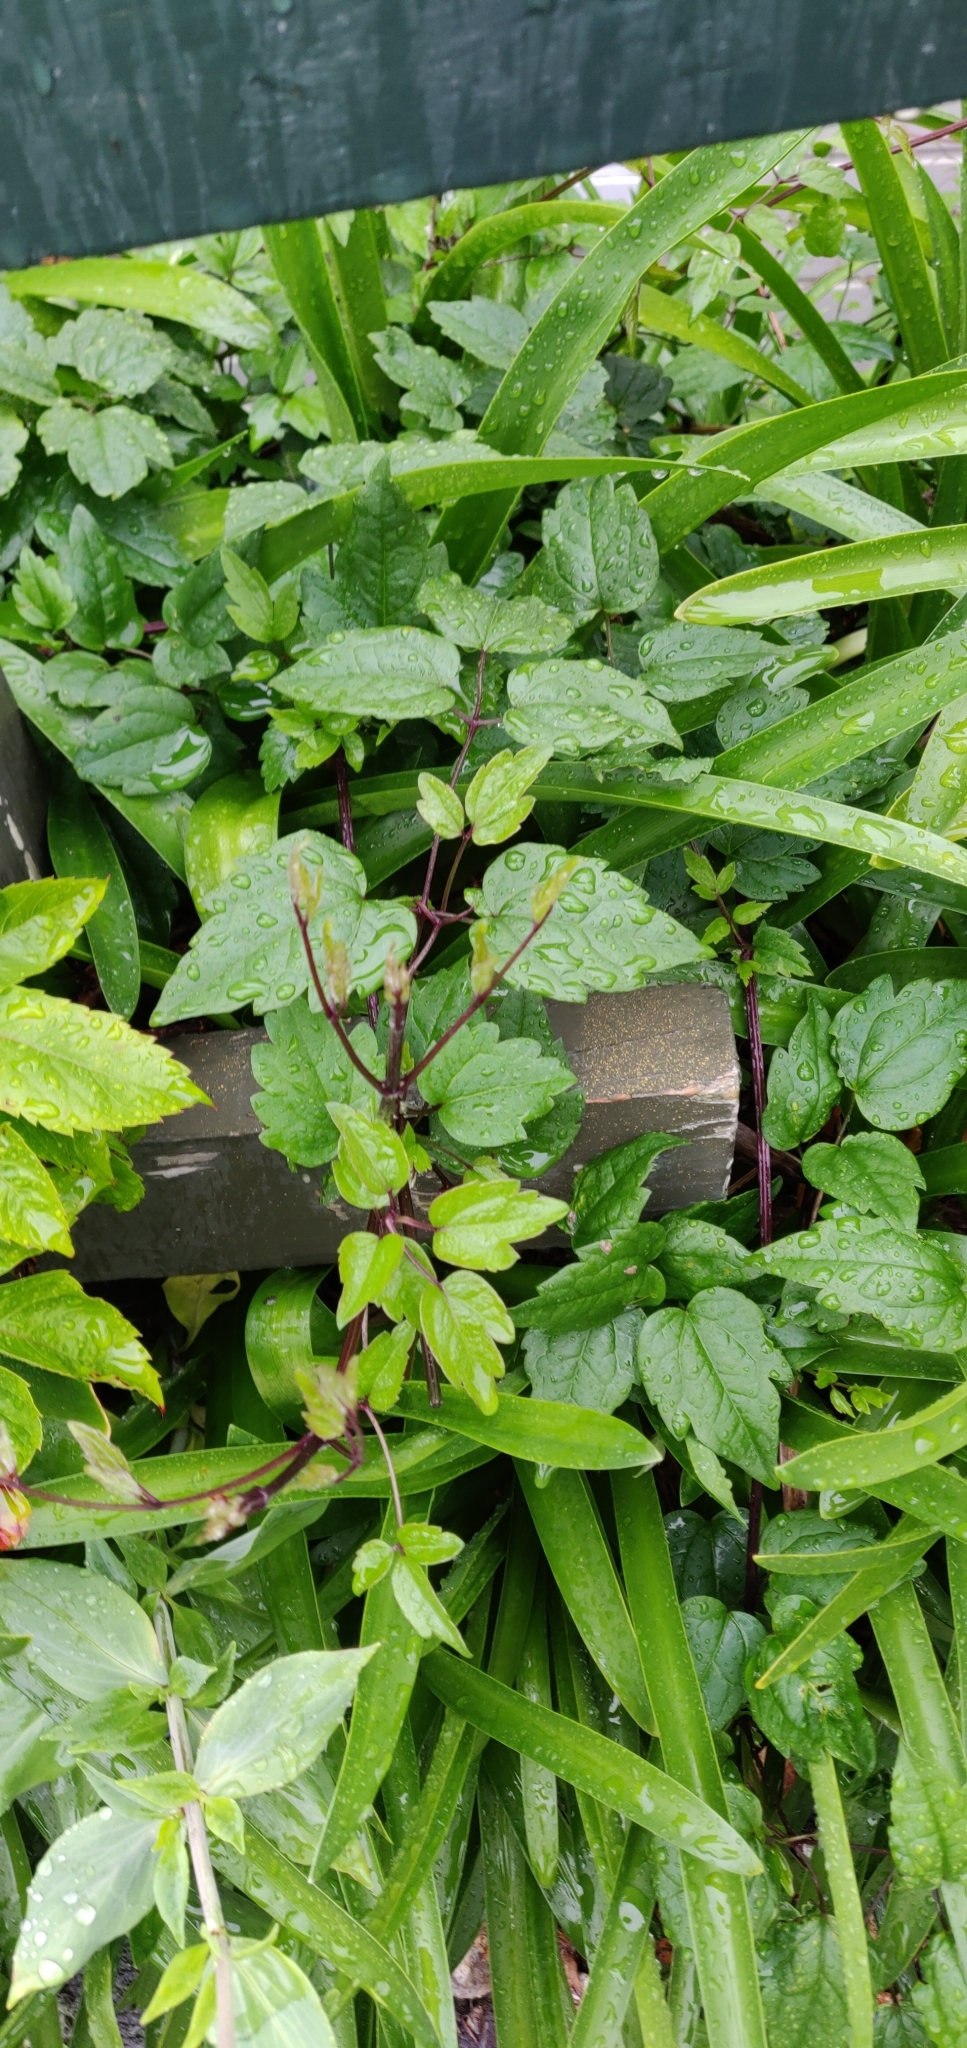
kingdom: Plantae
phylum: Tracheophyta
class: Magnoliopsida
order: Ranunculales
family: Ranunculaceae
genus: Clematis
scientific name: Clematis vitalba
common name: Evergreen clematis
